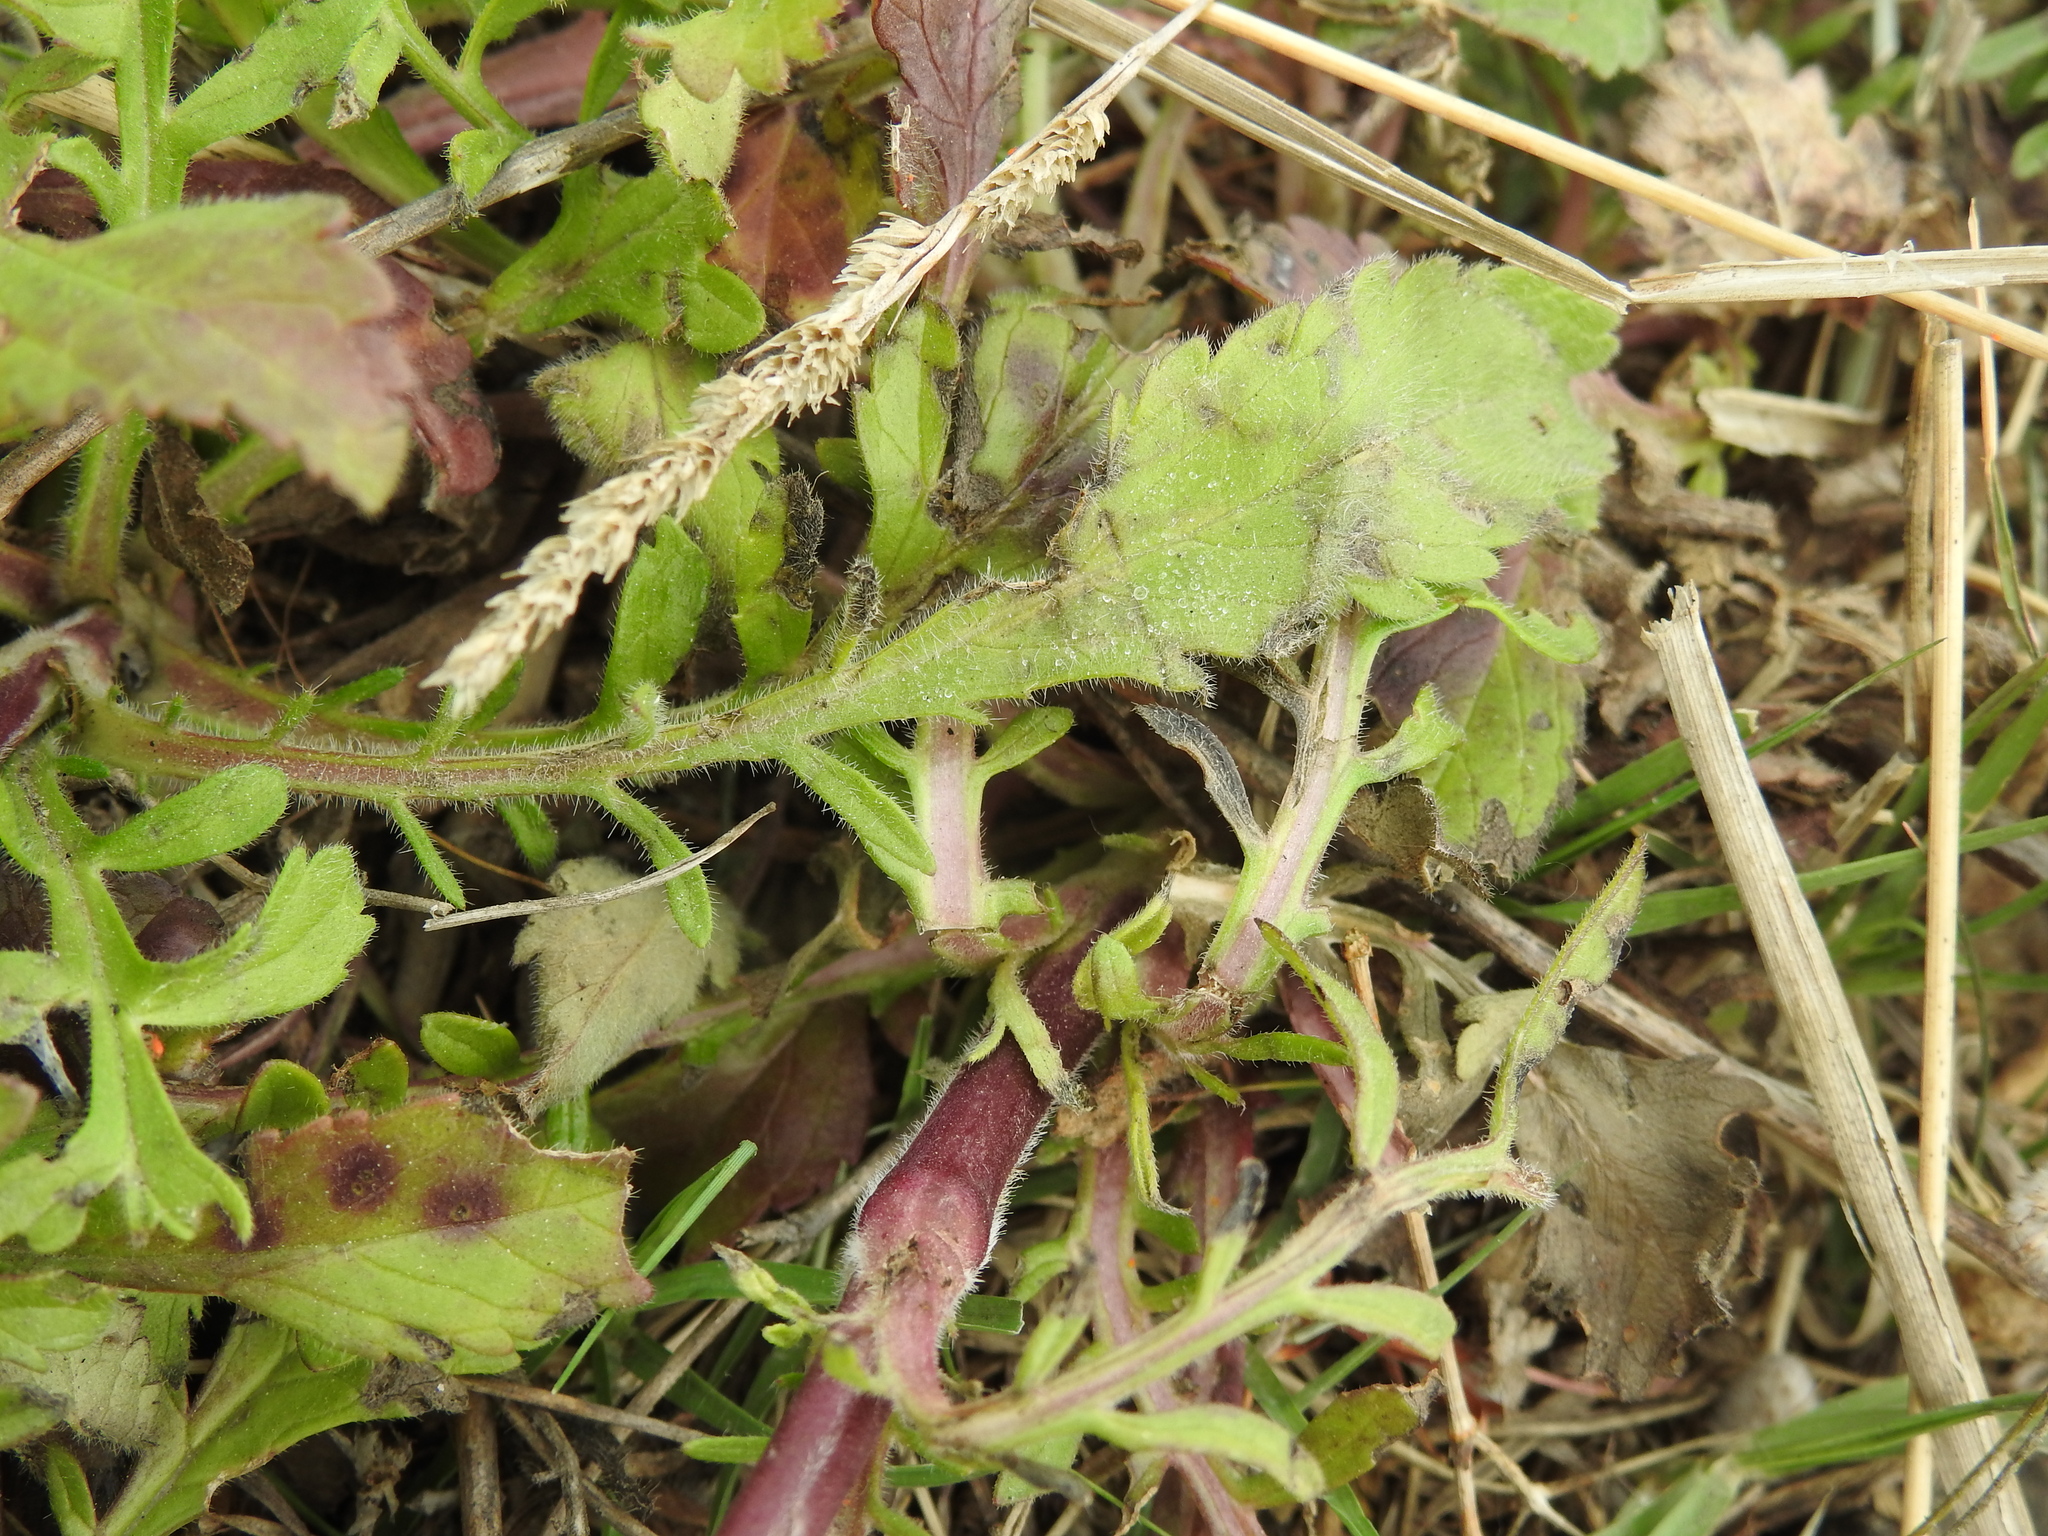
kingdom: Plantae
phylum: Tracheophyta
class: Magnoliopsida
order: Dipsacales
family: Caprifoliaceae
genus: Sixalix
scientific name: Sixalix atropurpurea
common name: Sweet scabious
